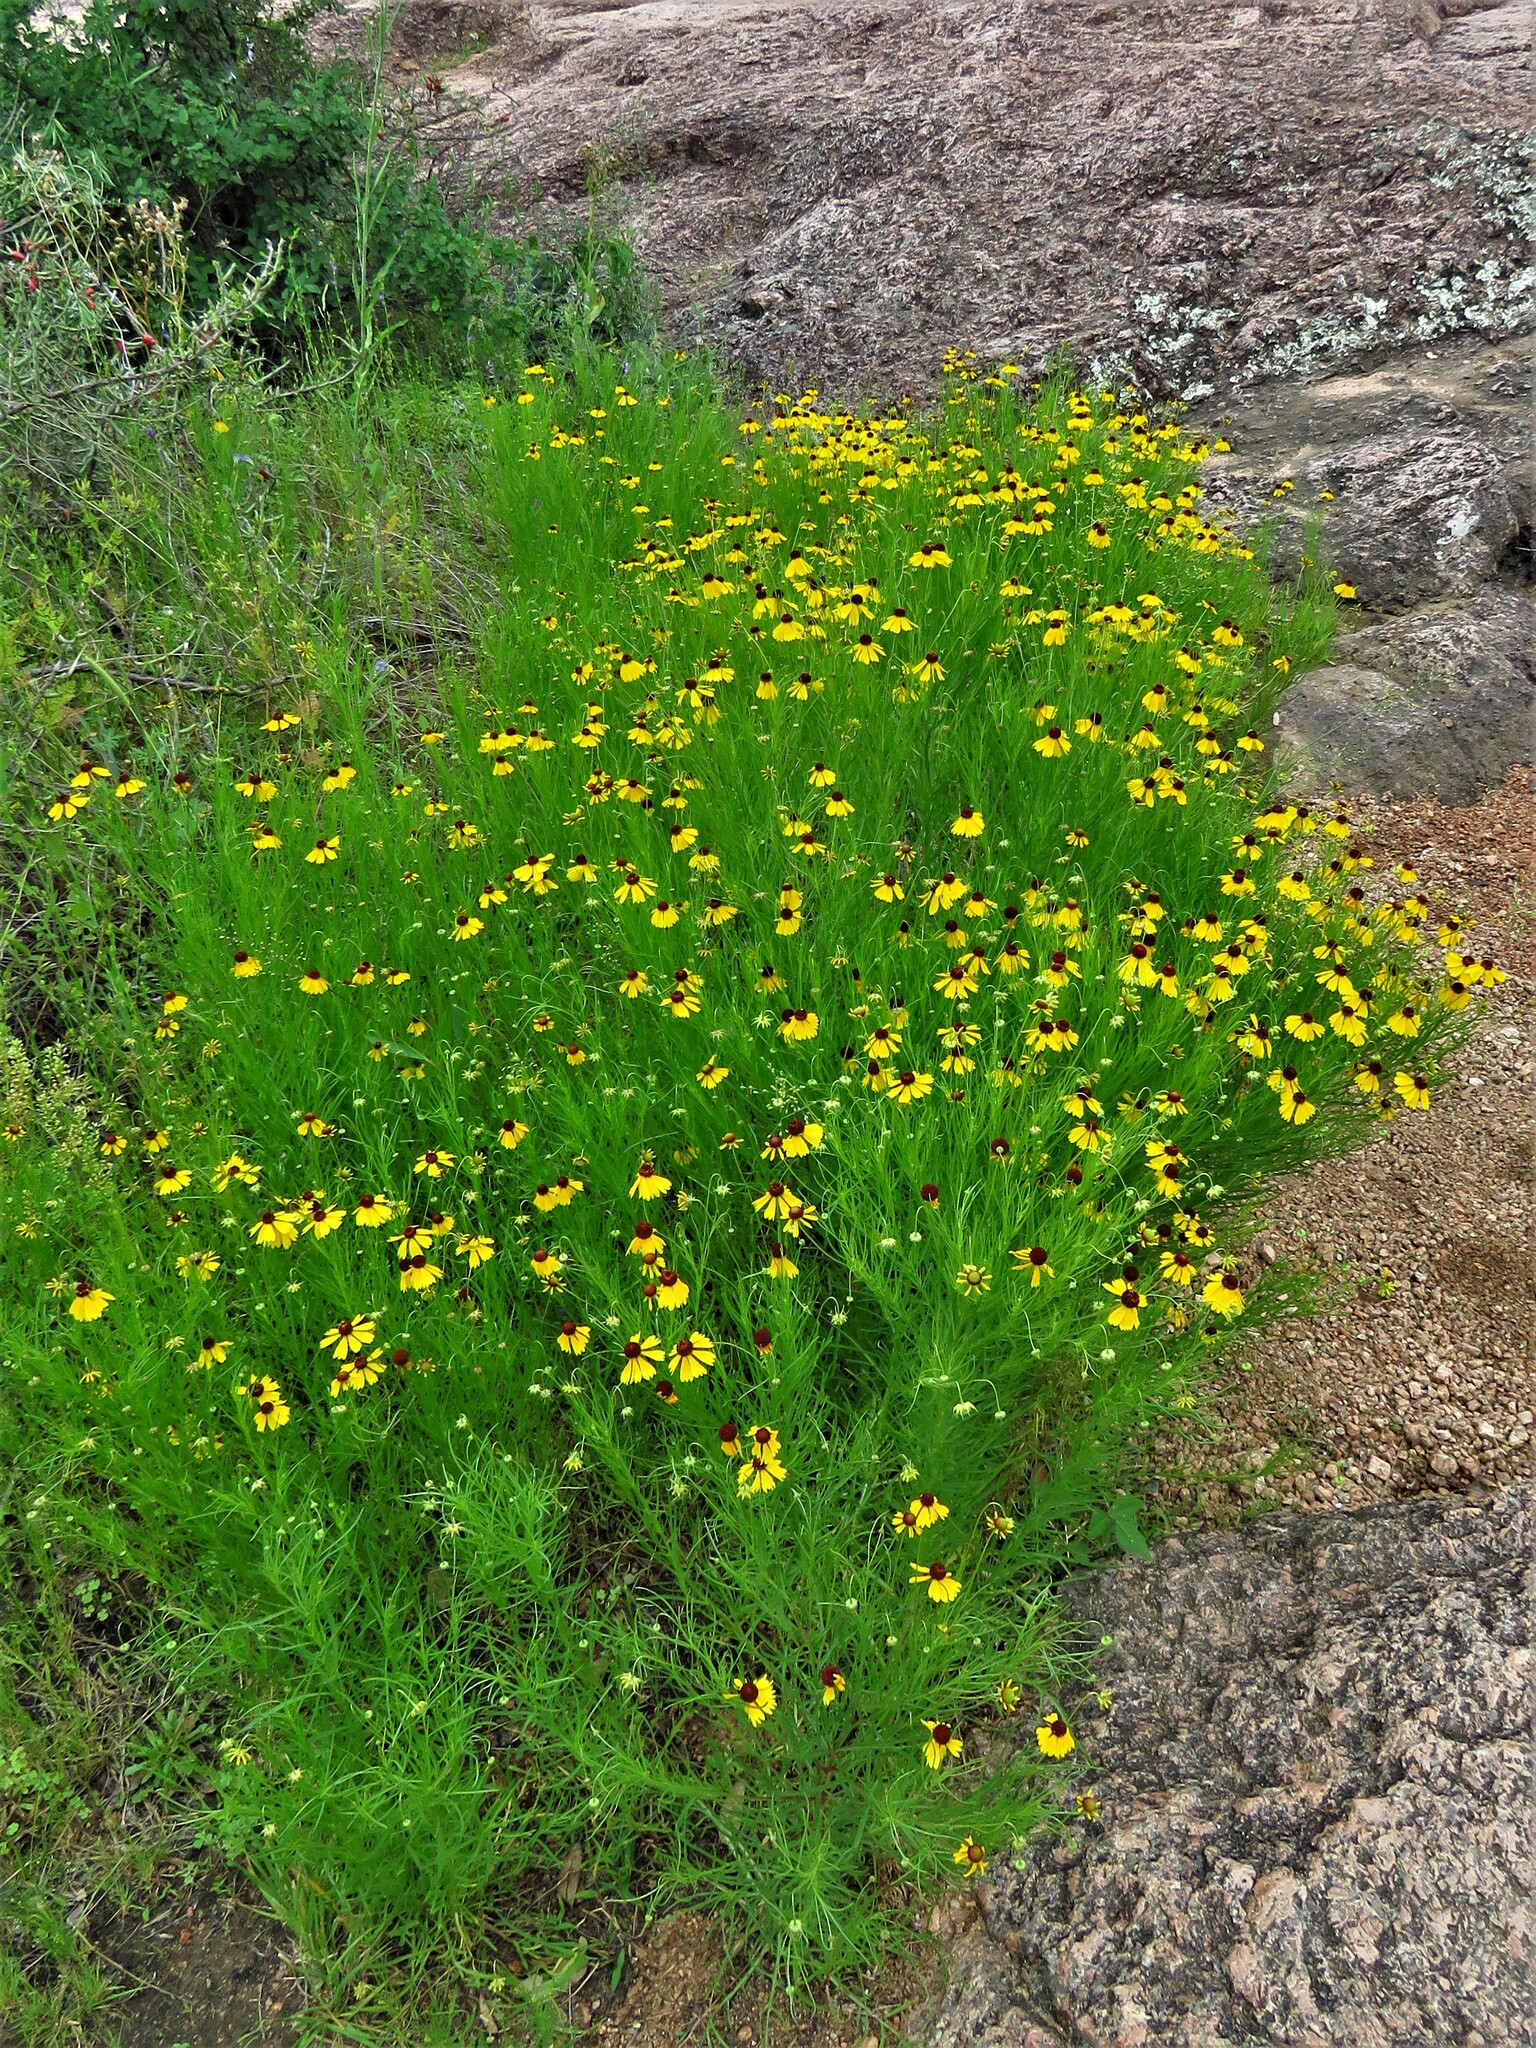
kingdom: Plantae
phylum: Tracheophyta
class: Magnoliopsida
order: Asterales
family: Asteraceae
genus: Helenium
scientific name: Helenium amarum
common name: Bitter sneezeweed
